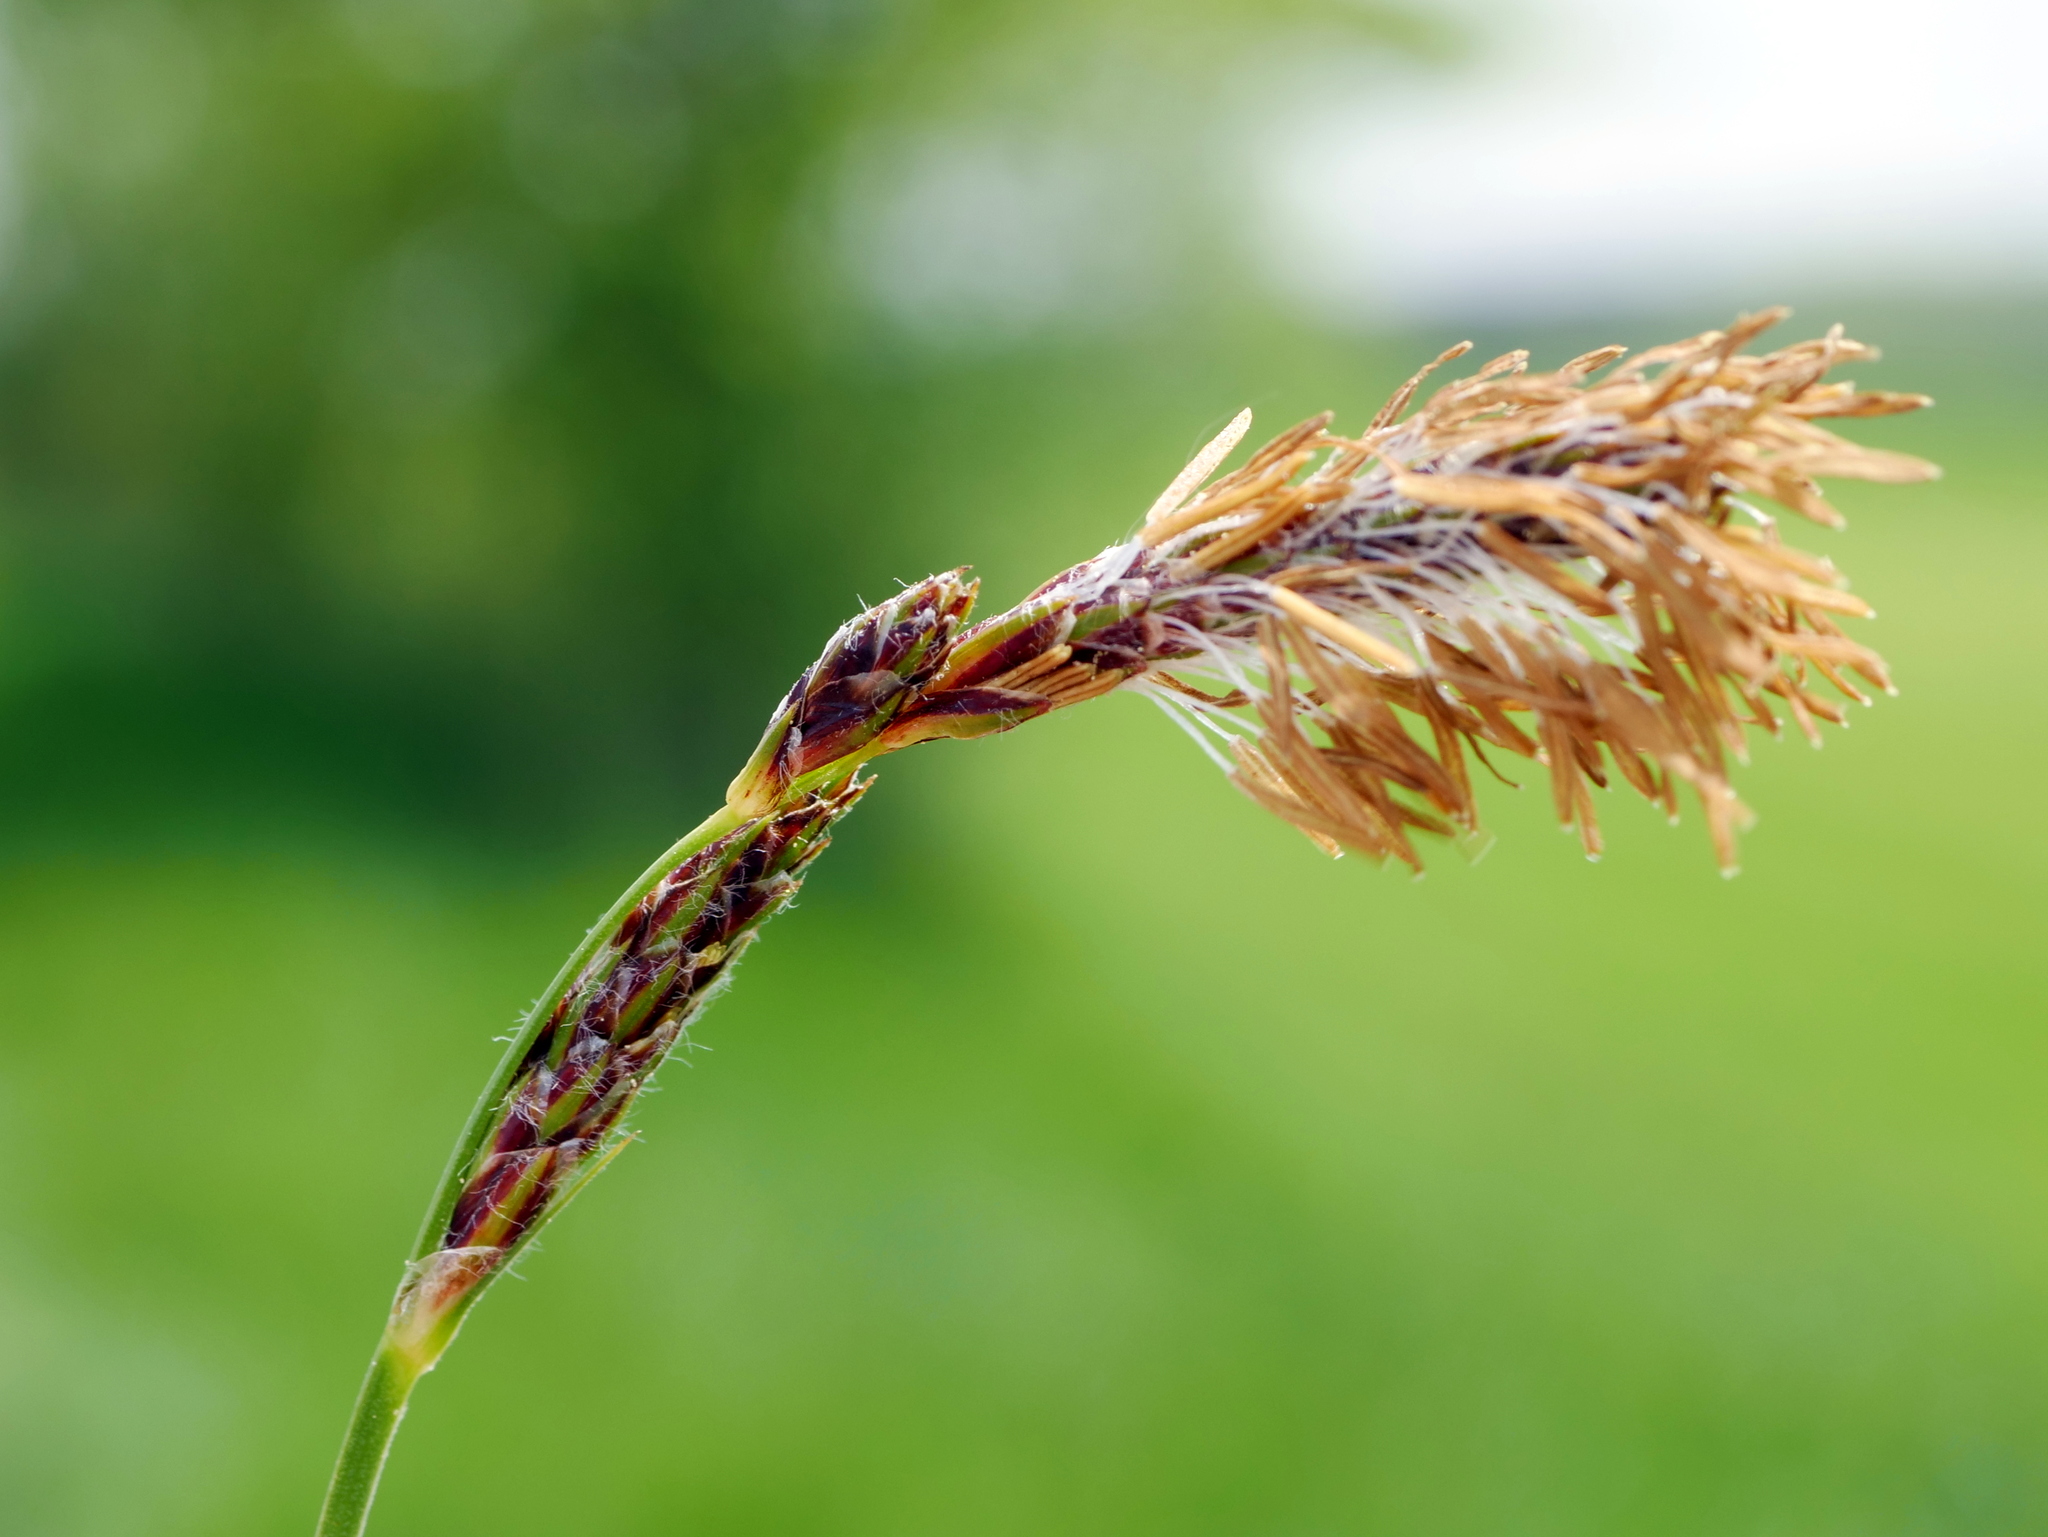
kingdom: Plantae
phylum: Tracheophyta
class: Liliopsida
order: Poales
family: Cyperaceae
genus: Carex
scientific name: Carex hirta
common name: Hairy sedge
